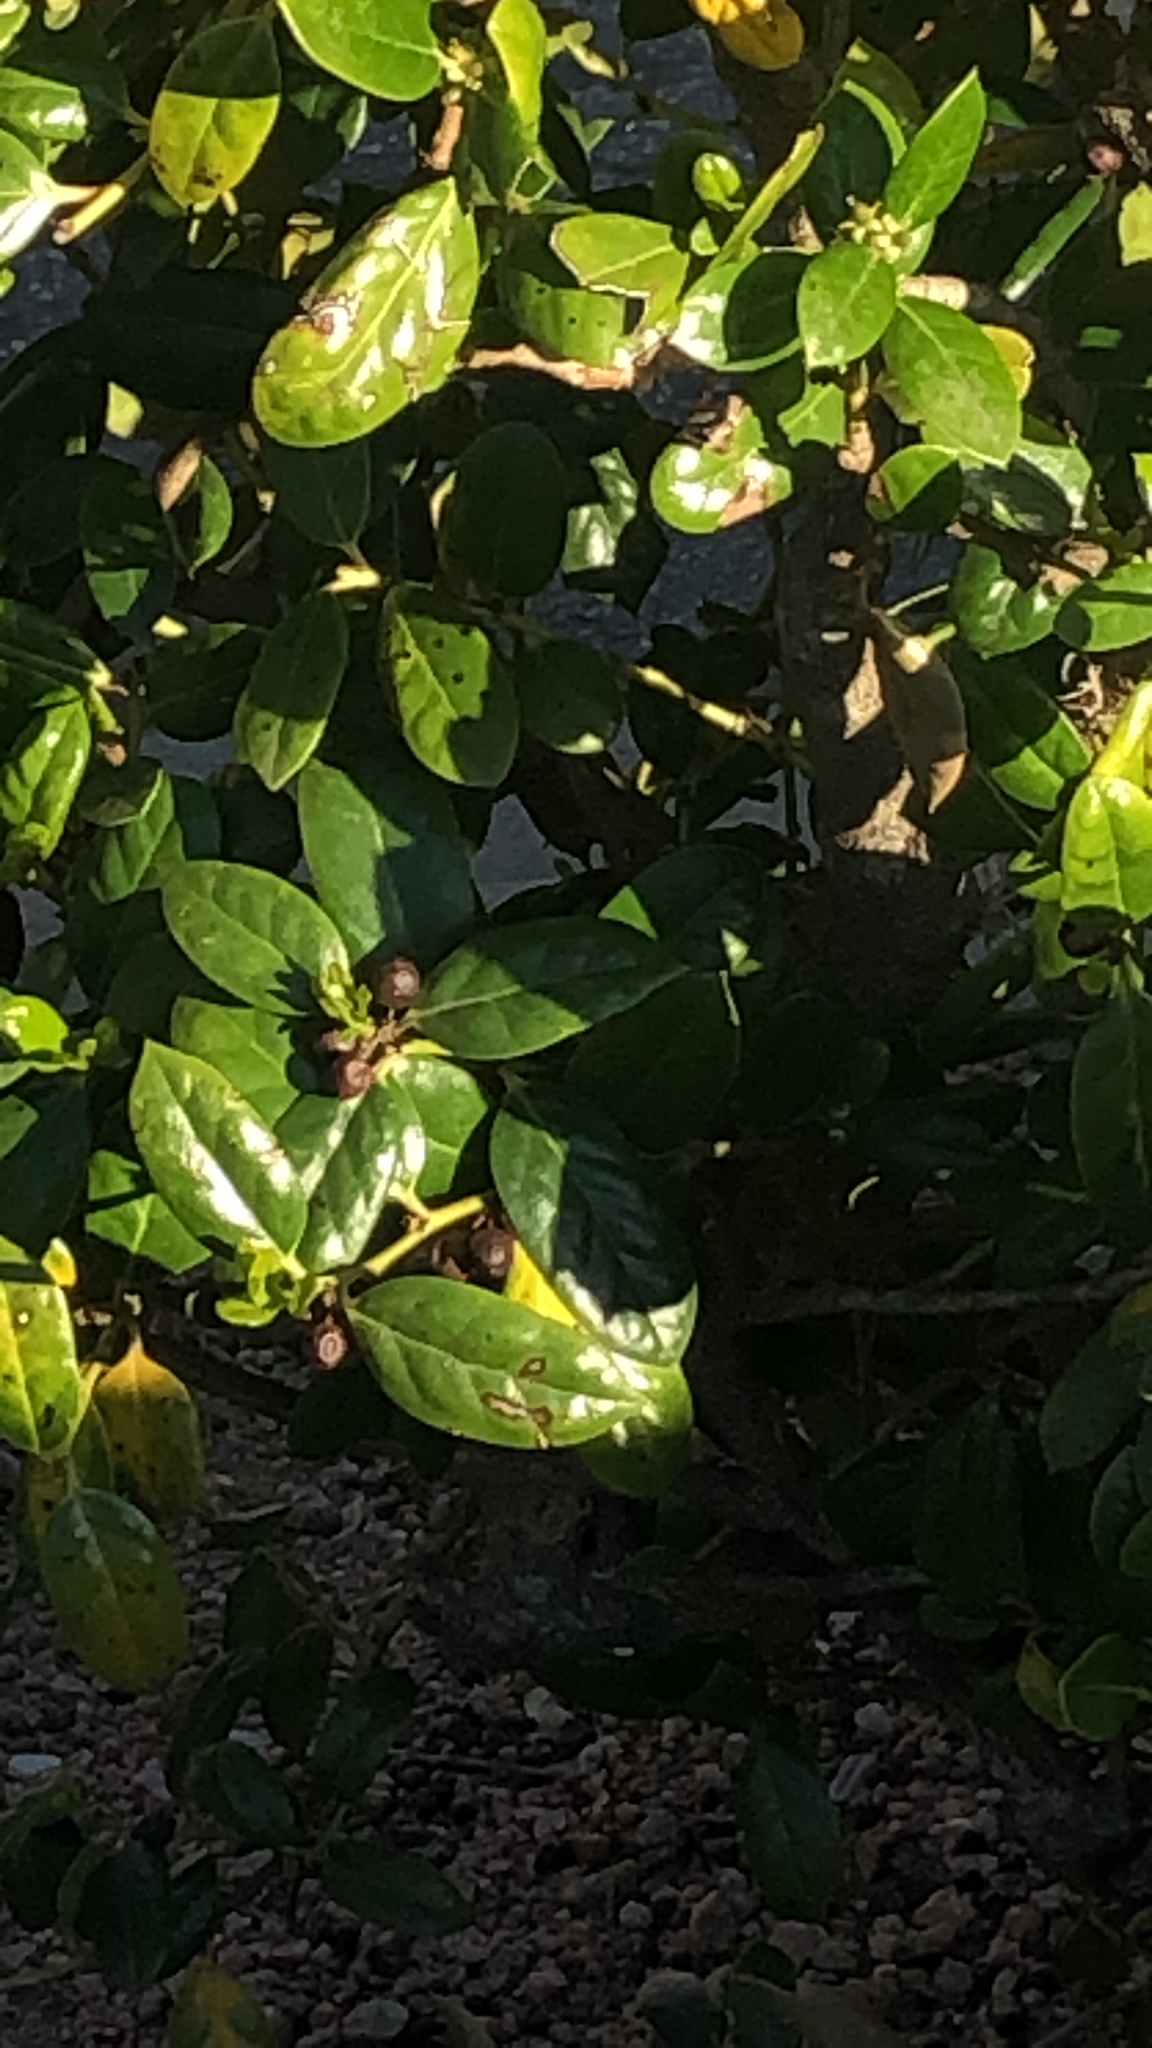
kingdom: Plantae
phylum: Tracheophyta
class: Magnoliopsida
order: Aquifoliales
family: Aquifoliaceae
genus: Ilex
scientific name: Ilex cornuta
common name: Chinese holly
